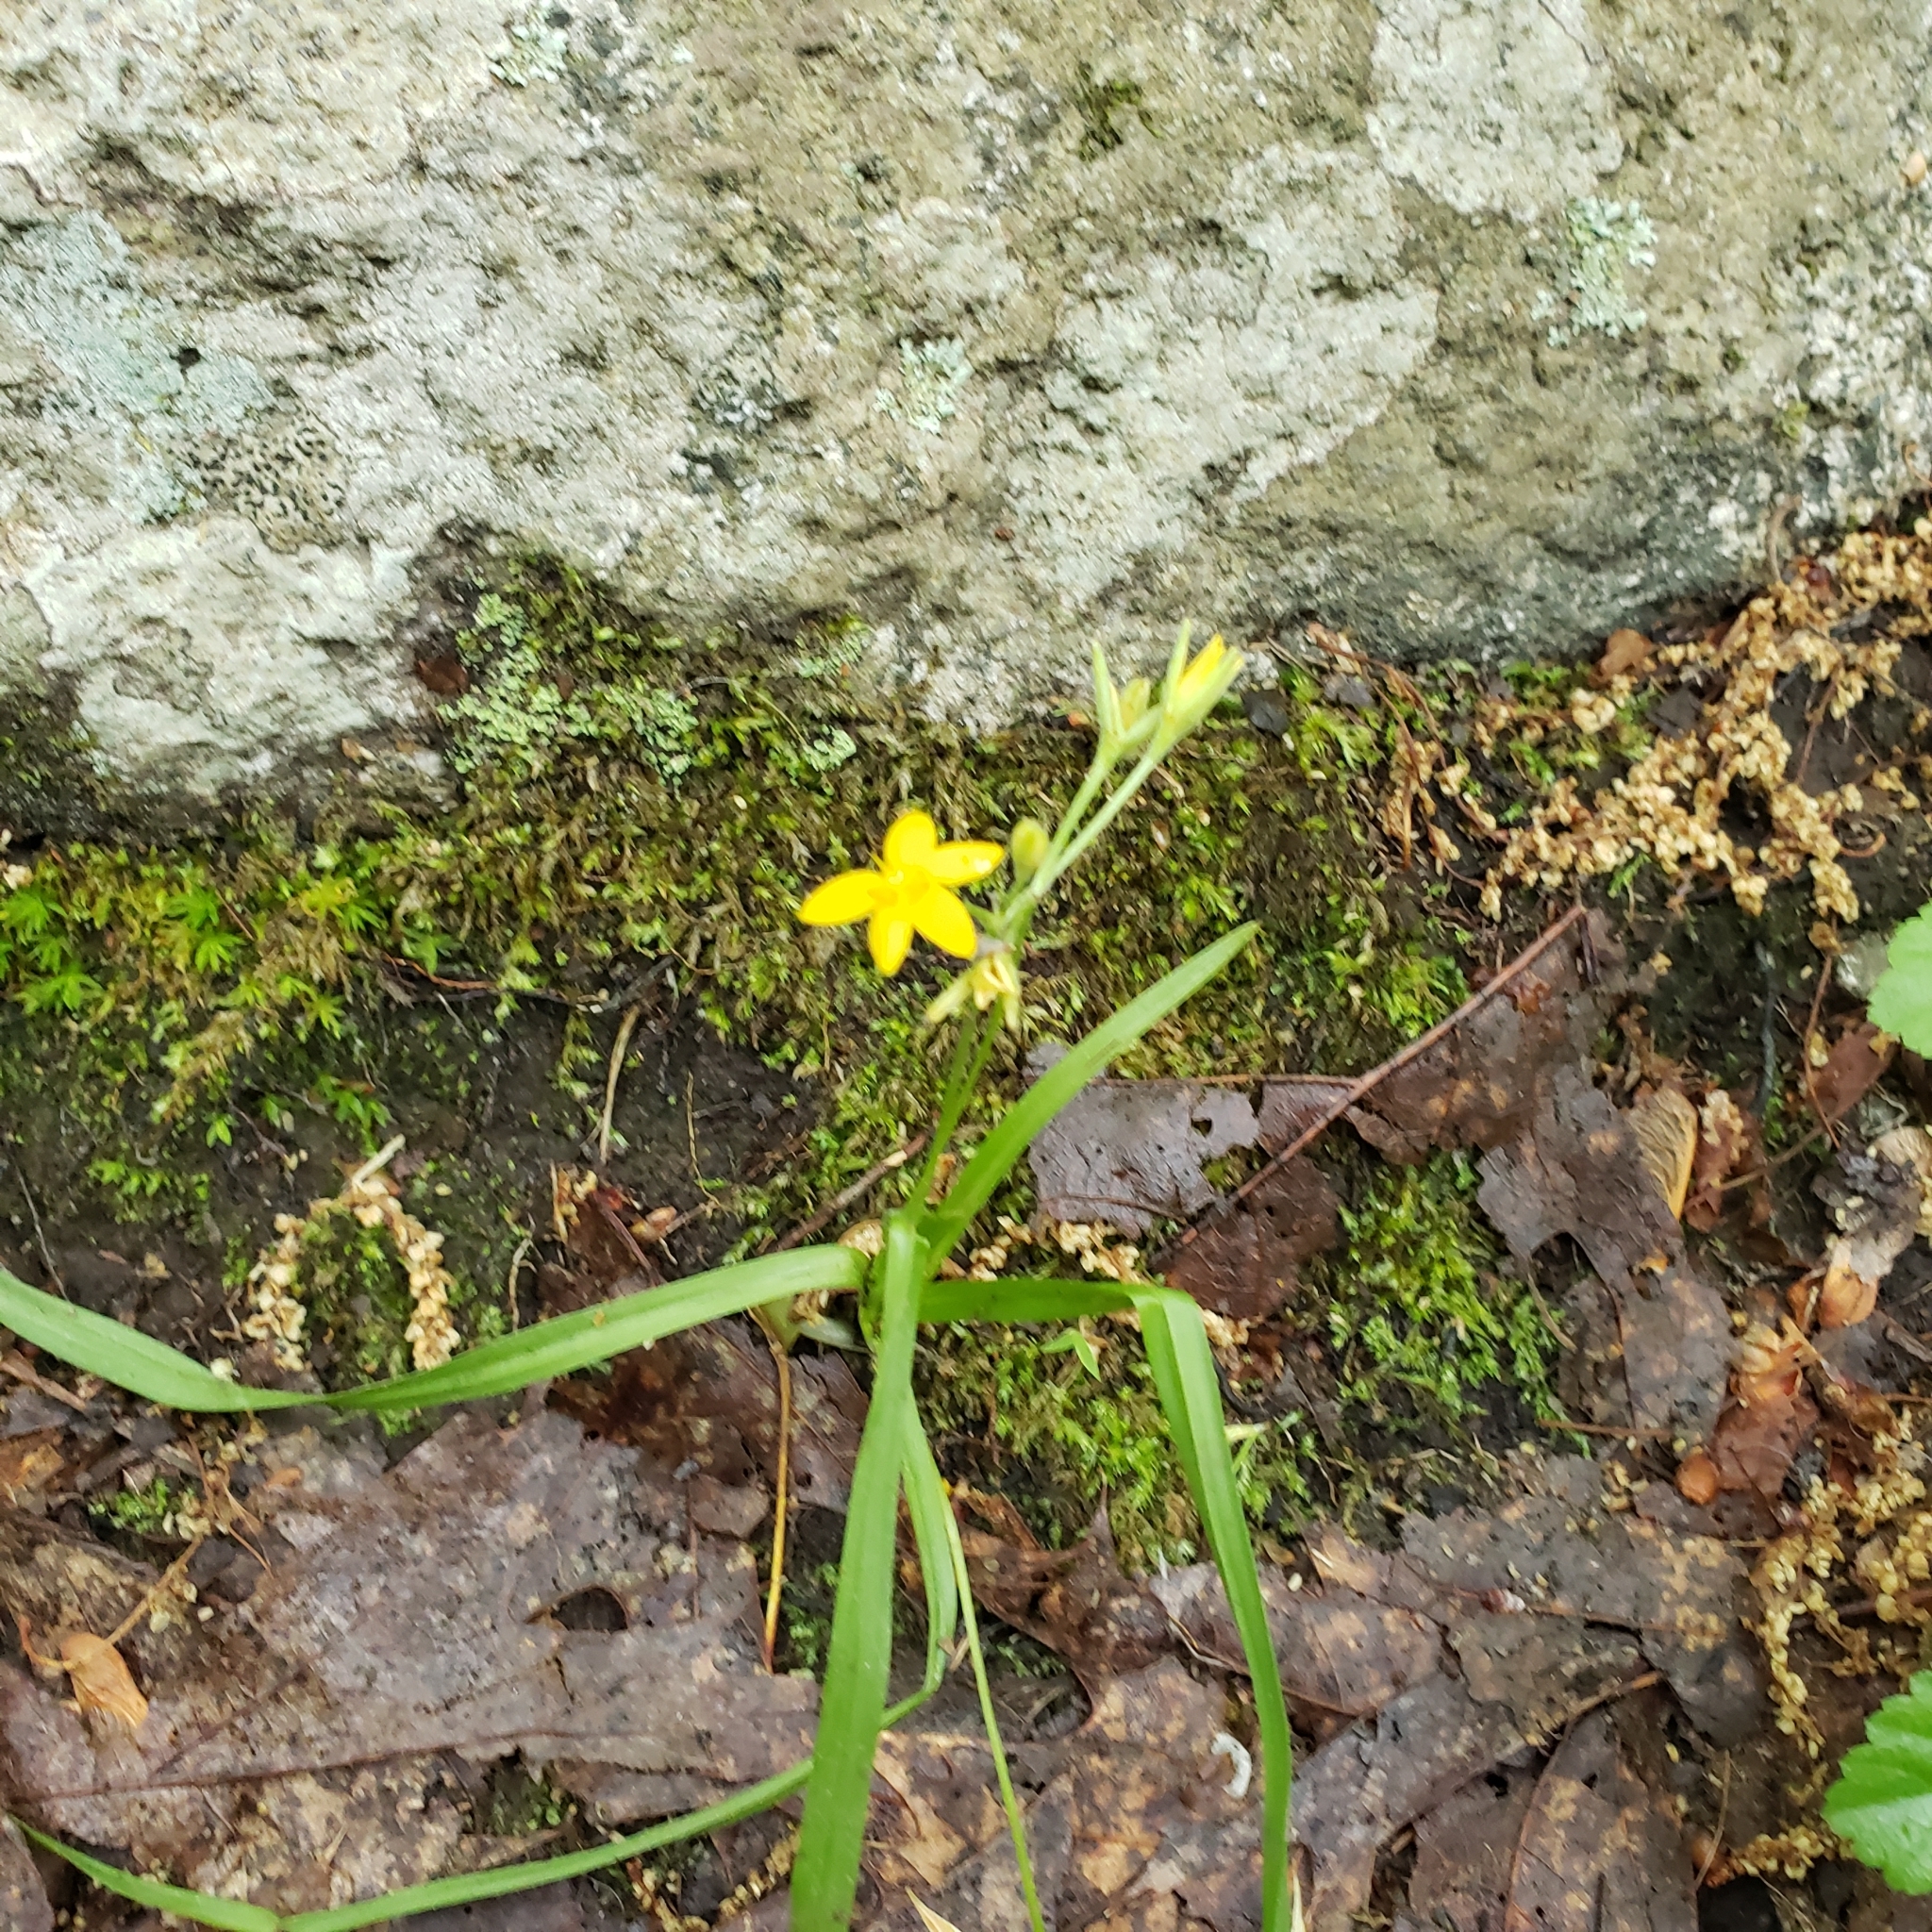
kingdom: Plantae
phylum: Tracheophyta
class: Liliopsida
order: Asparagales
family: Hypoxidaceae
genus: Hypoxis
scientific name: Hypoxis hirsuta
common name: Common goldstar
